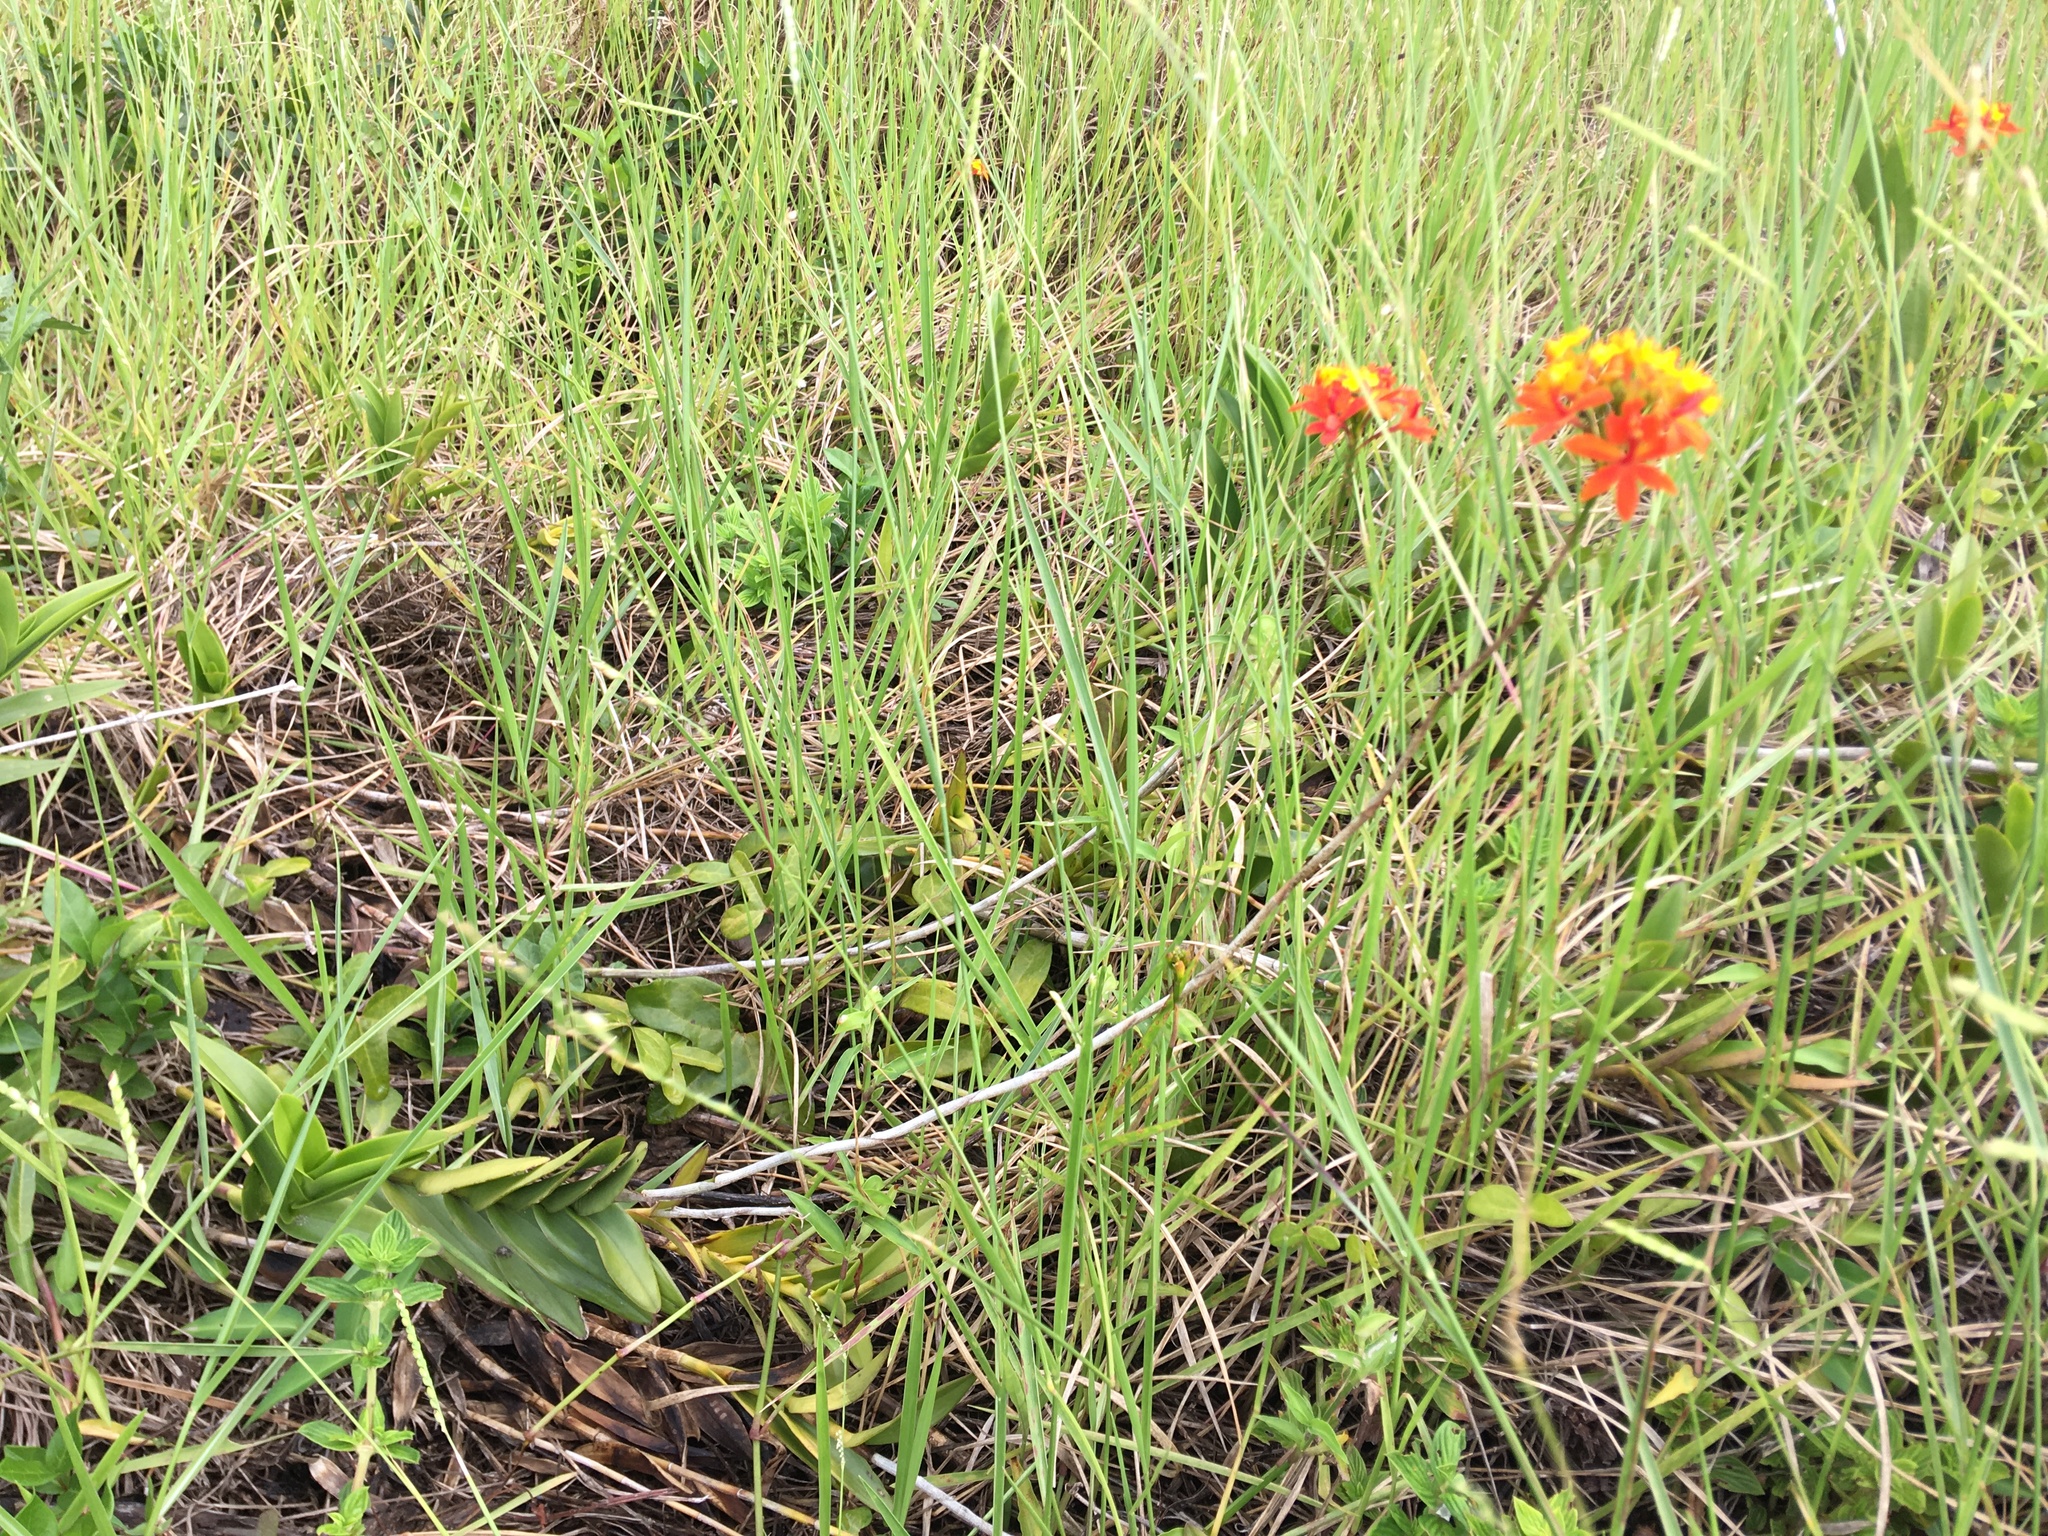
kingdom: Plantae
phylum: Tracheophyta
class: Liliopsida
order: Asparagales
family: Orchidaceae
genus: Epidendrum
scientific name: Epidendrum fulgens
